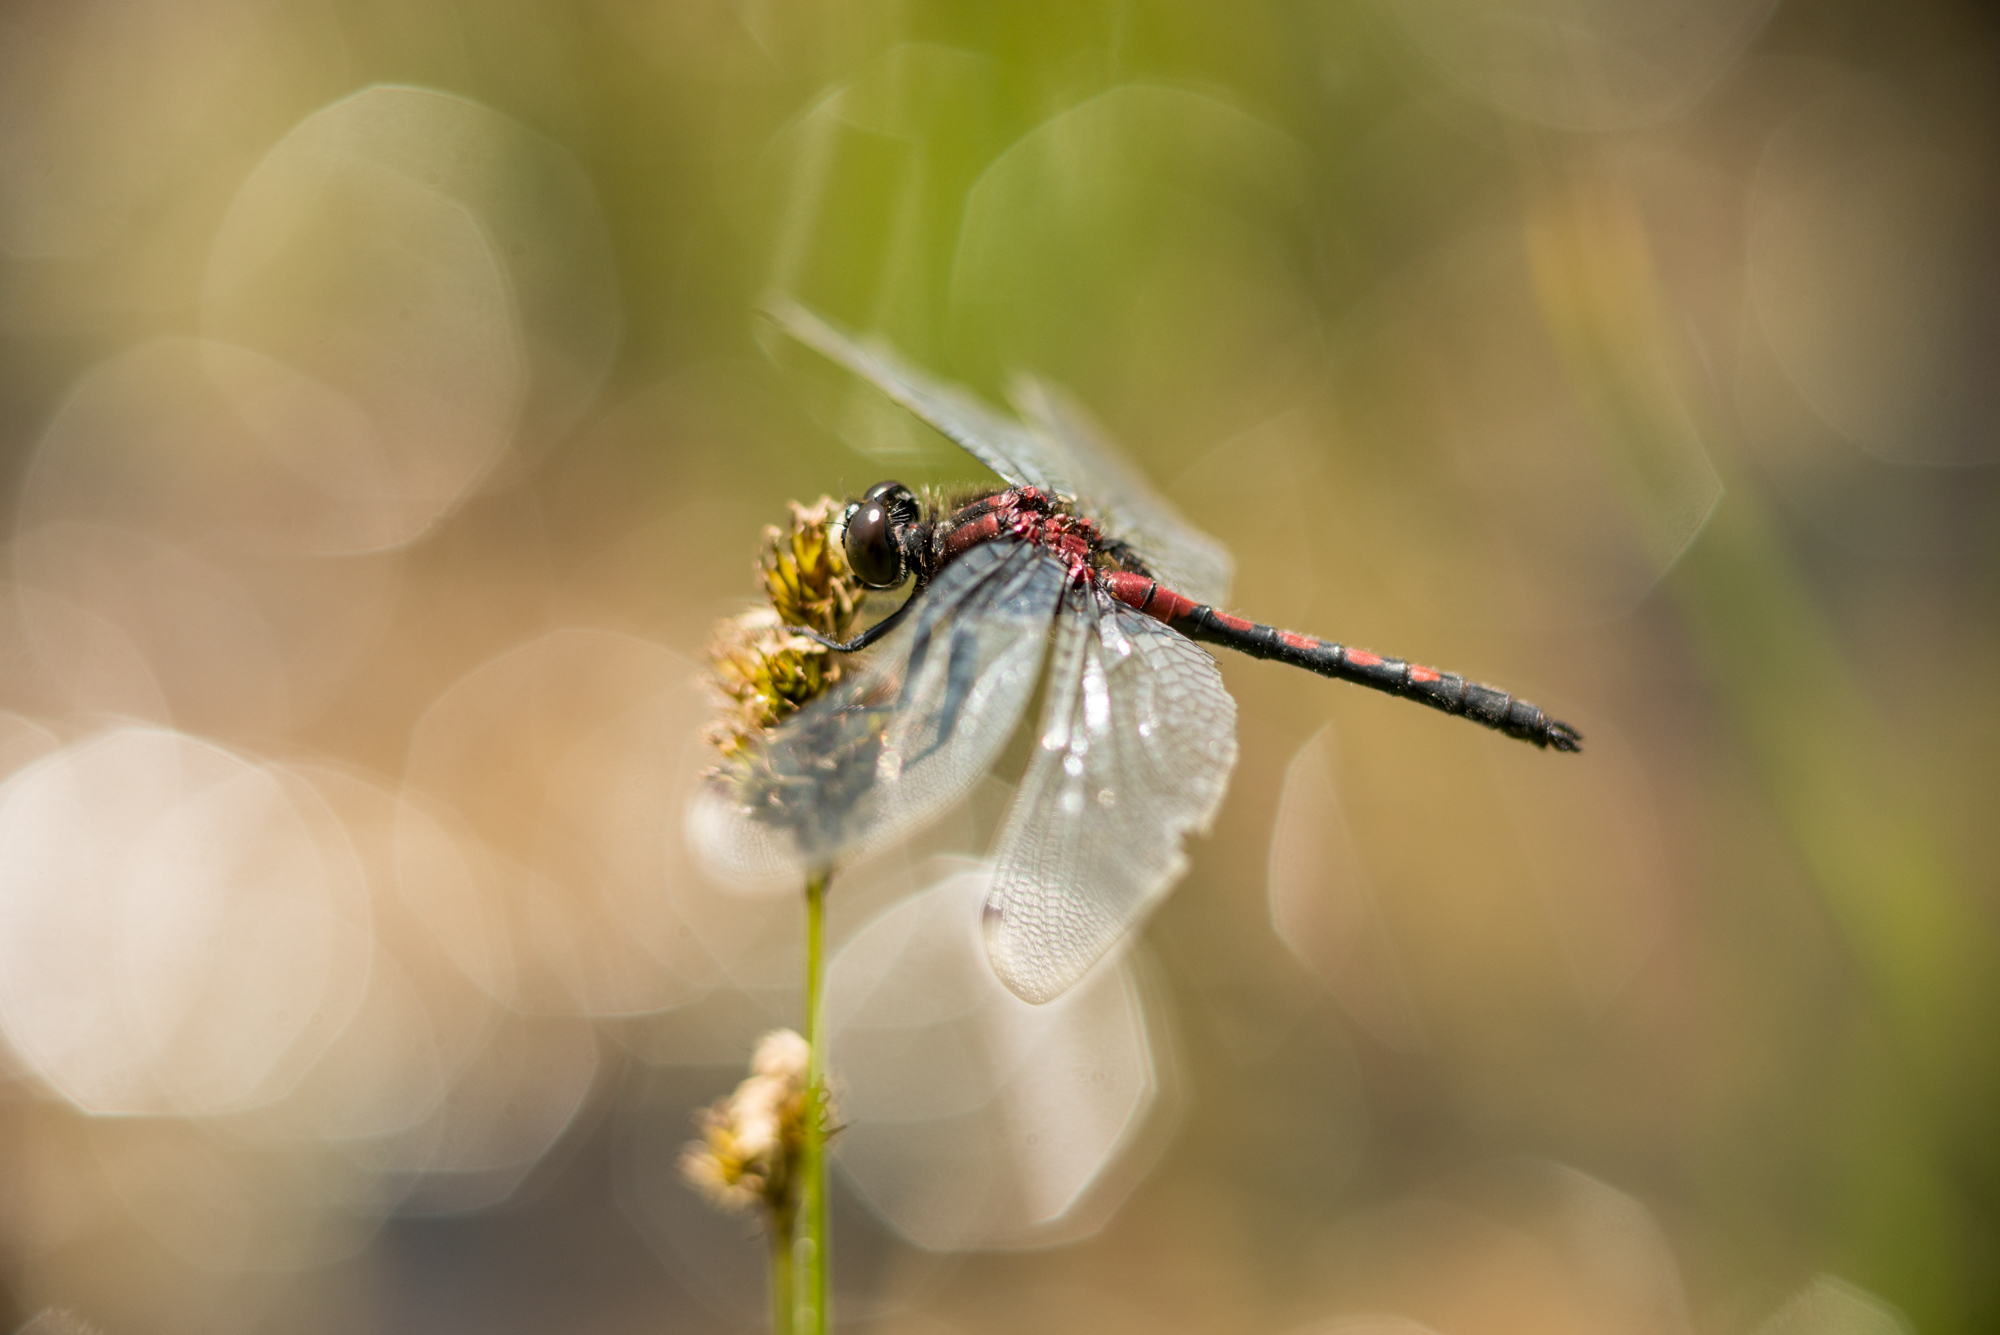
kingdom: Animalia
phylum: Arthropoda
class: Insecta
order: Odonata
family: Libellulidae
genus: Leucorrhinia
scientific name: Leucorrhinia hudsonica
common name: Hudsonian whiteface
